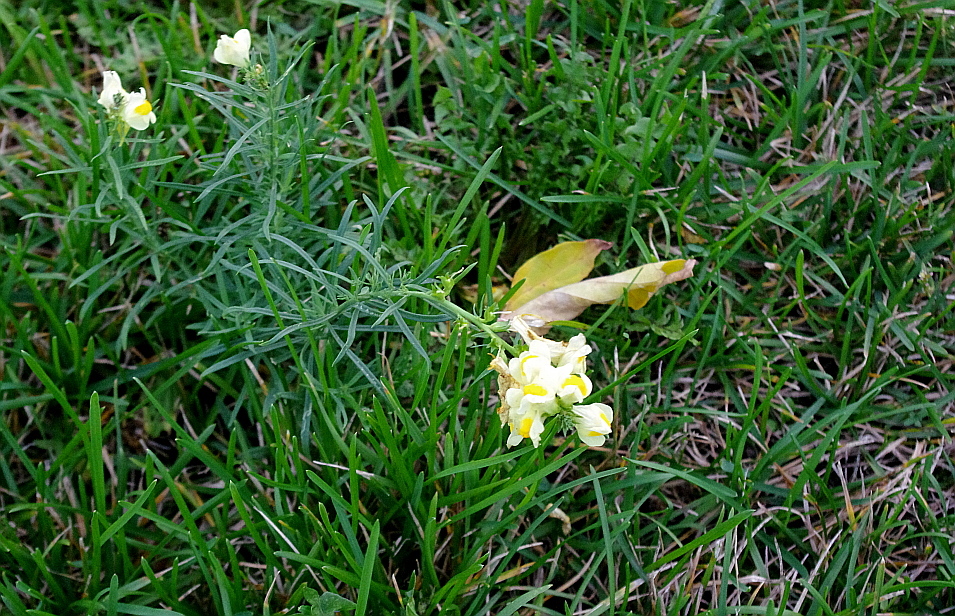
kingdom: Plantae
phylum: Tracheophyta
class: Magnoliopsida
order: Lamiales
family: Plantaginaceae
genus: Linaria
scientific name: Linaria vulgaris
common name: Butter and eggs
